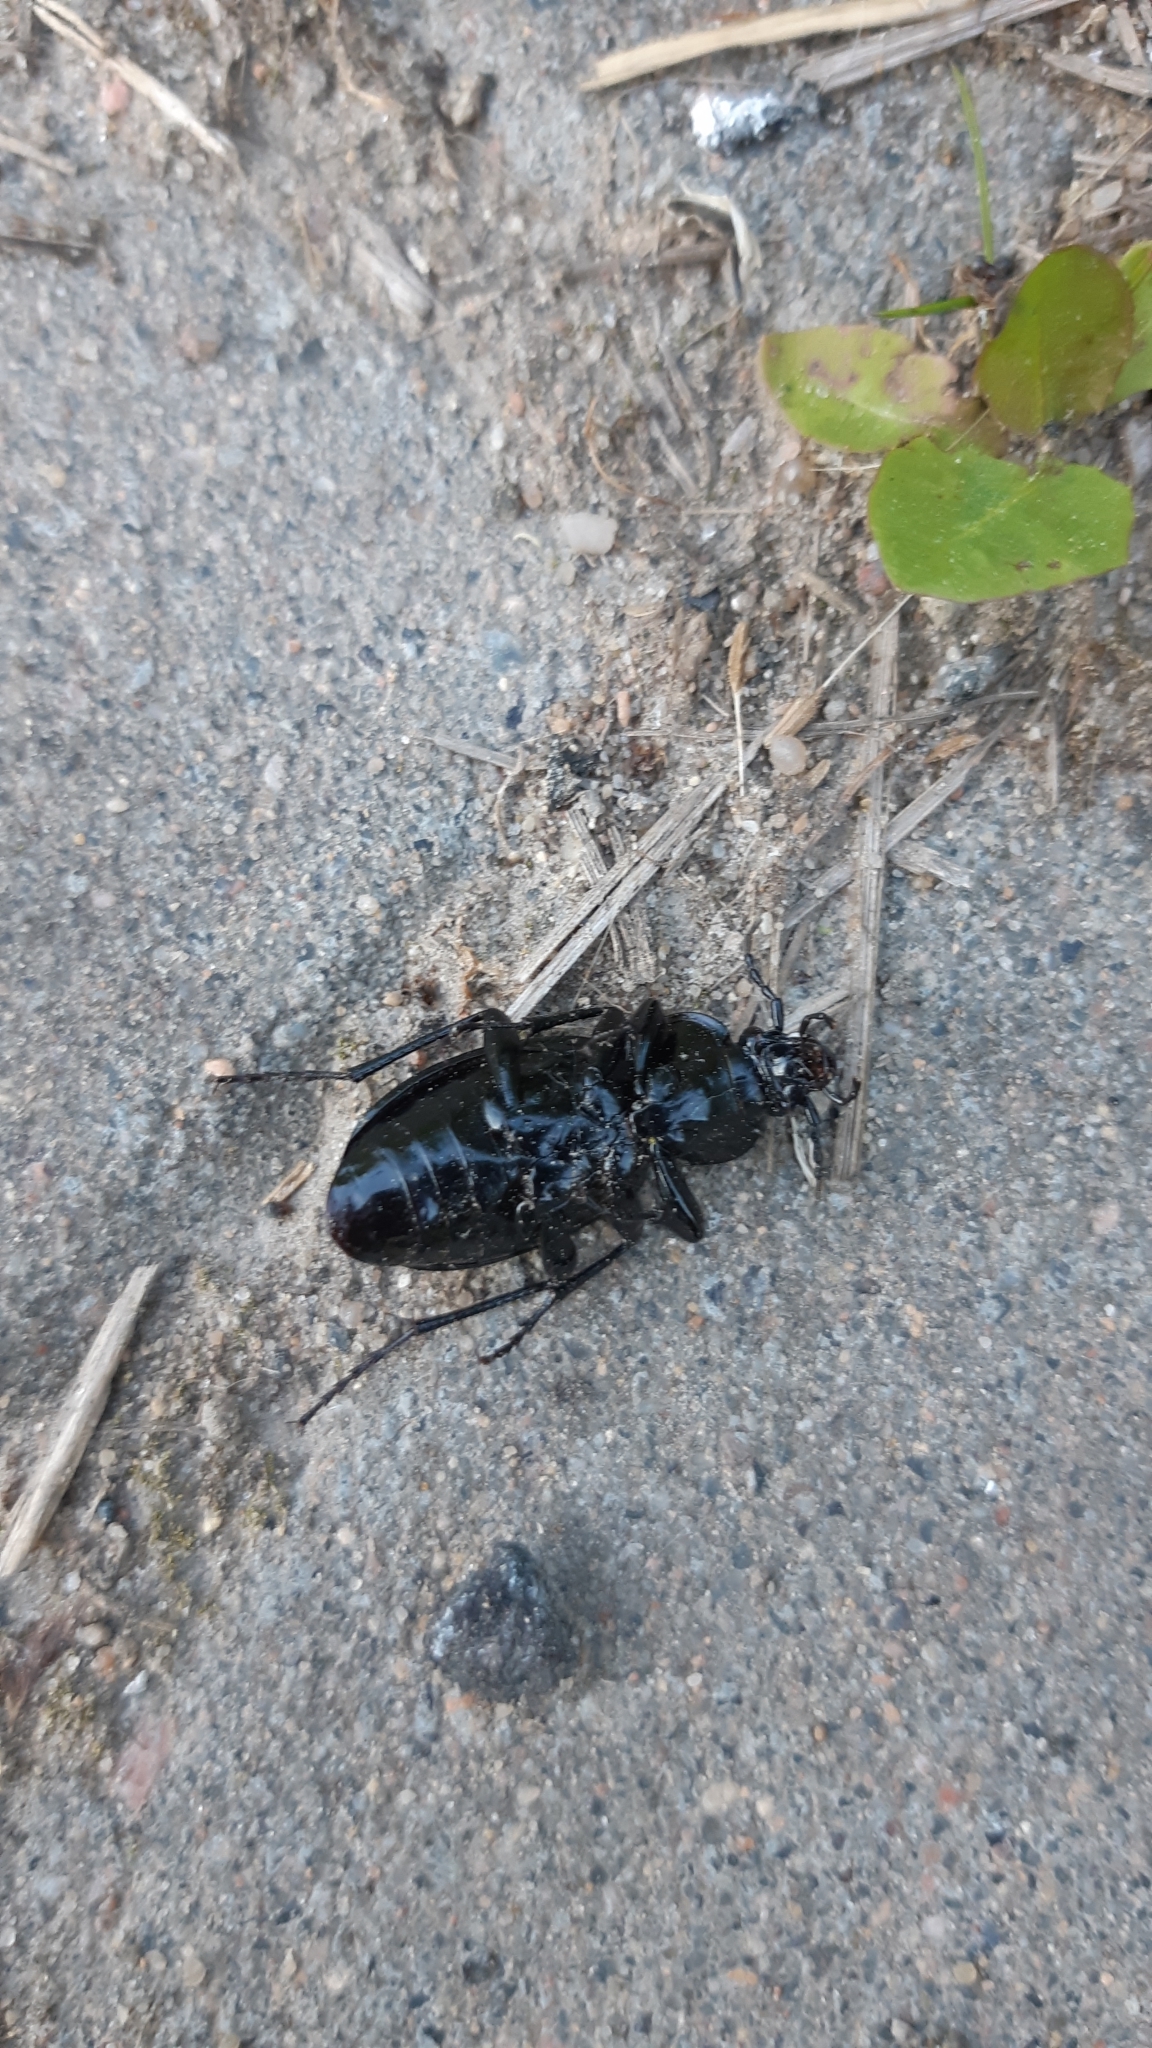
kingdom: Animalia
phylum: Arthropoda
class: Insecta
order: Coleoptera
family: Carabidae
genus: Carabus
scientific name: Carabus nemoralis
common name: European ground beetle
